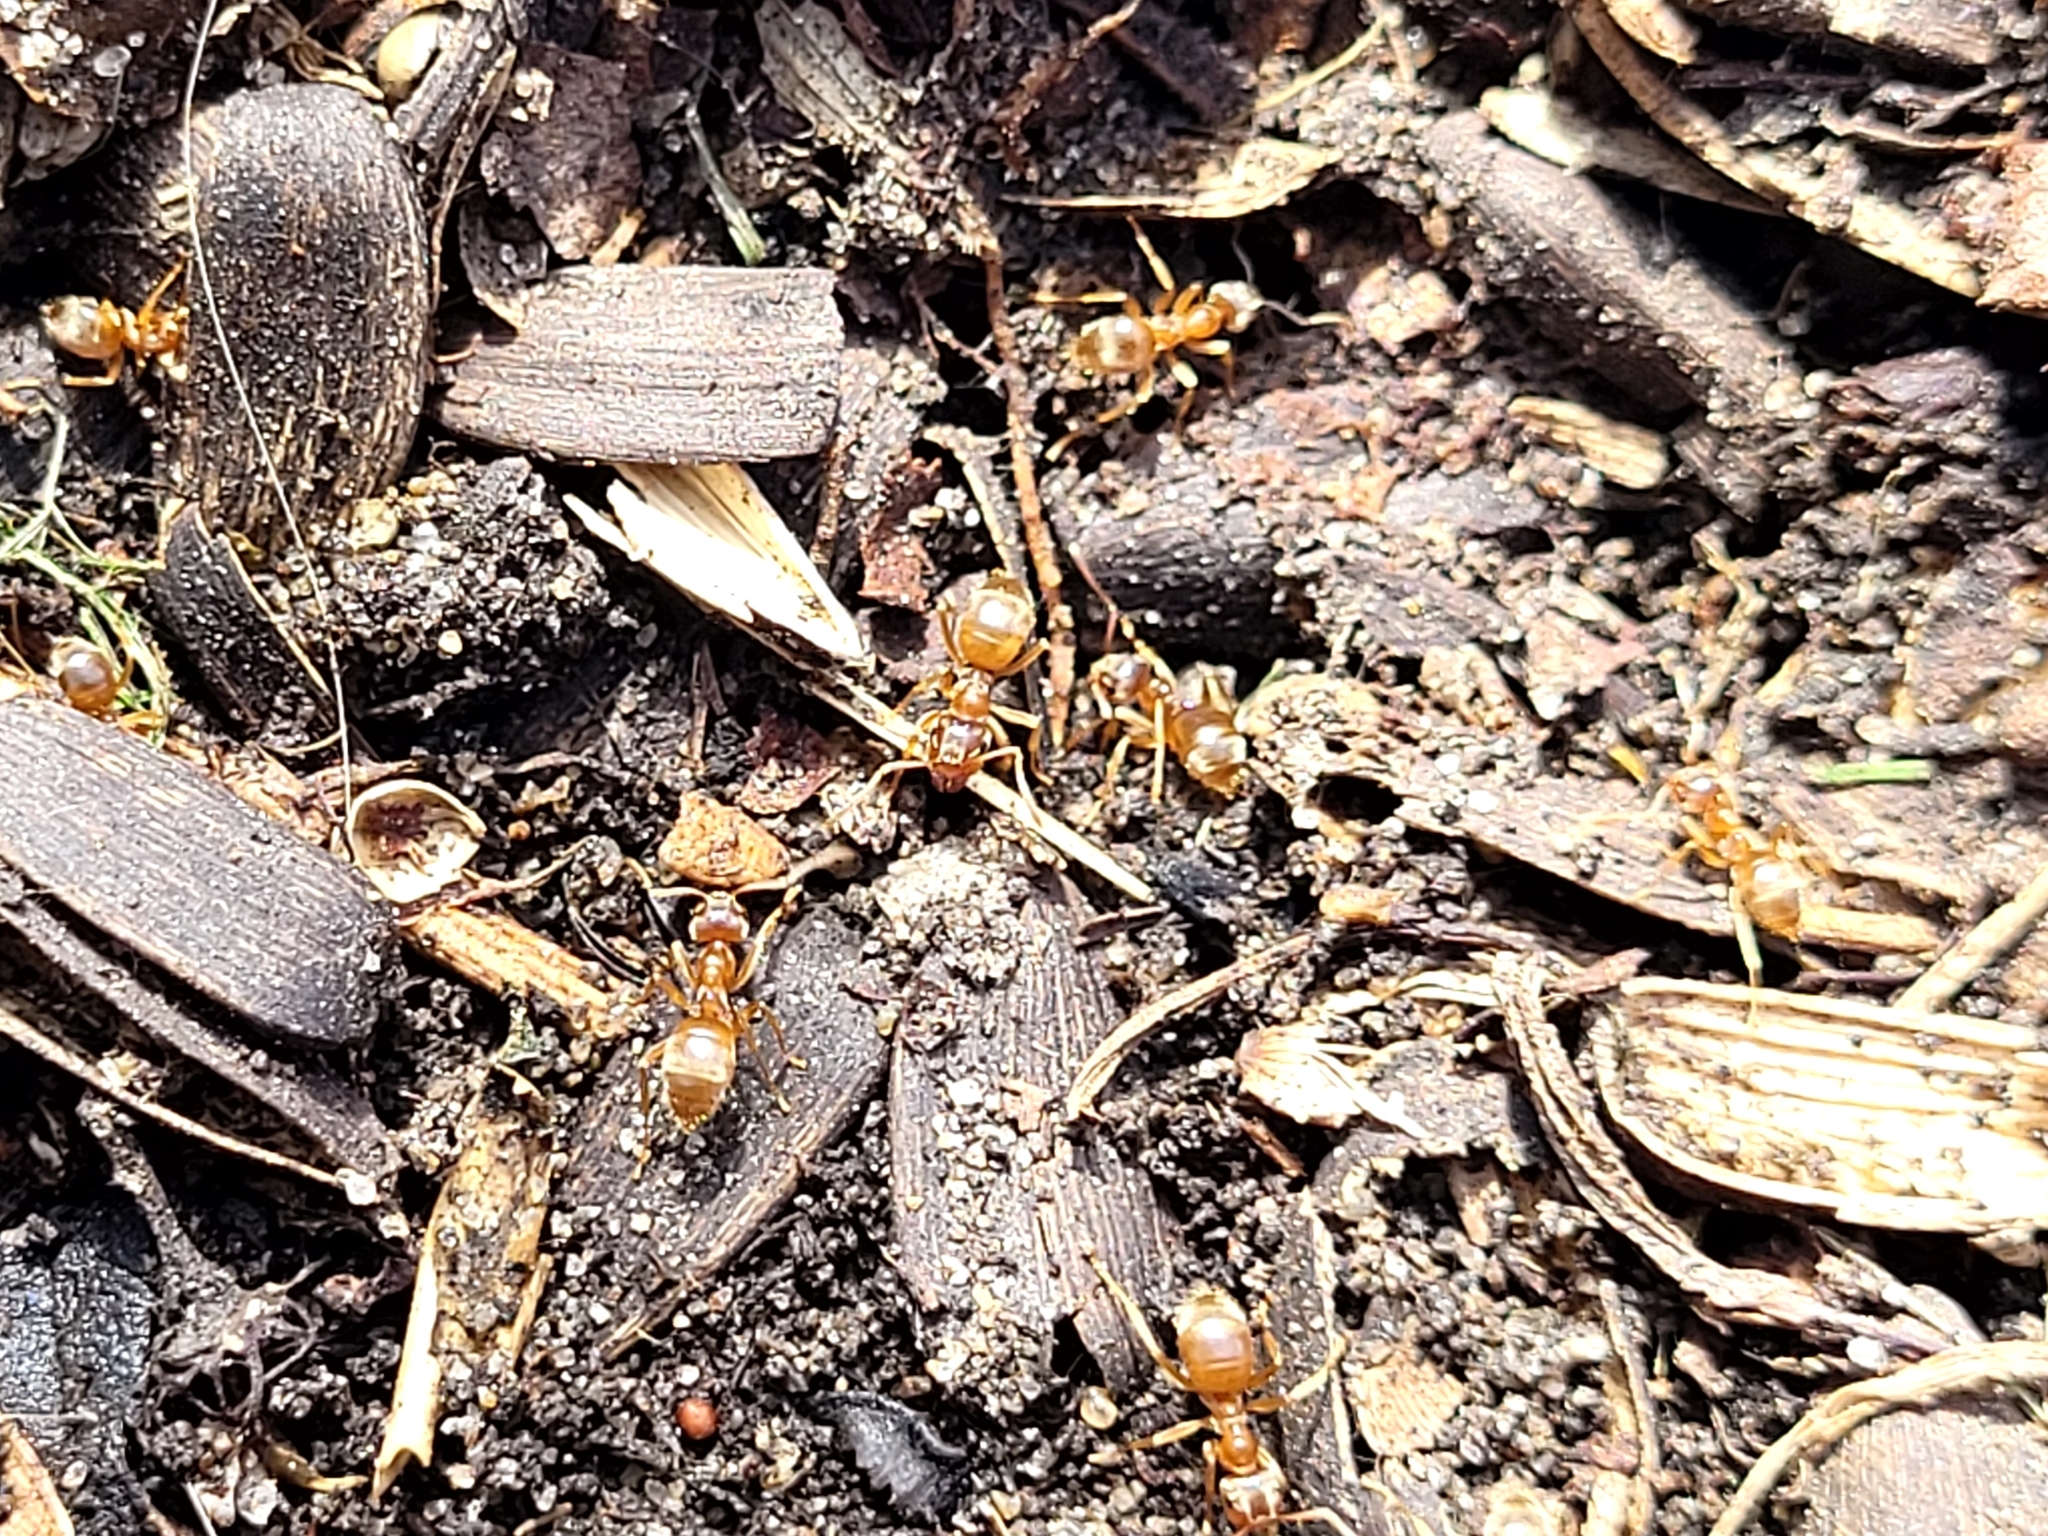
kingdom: Animalia
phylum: Arthropoda
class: Insecta
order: Hymenoptera
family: Formicidae
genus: Lasius
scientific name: Lasius
